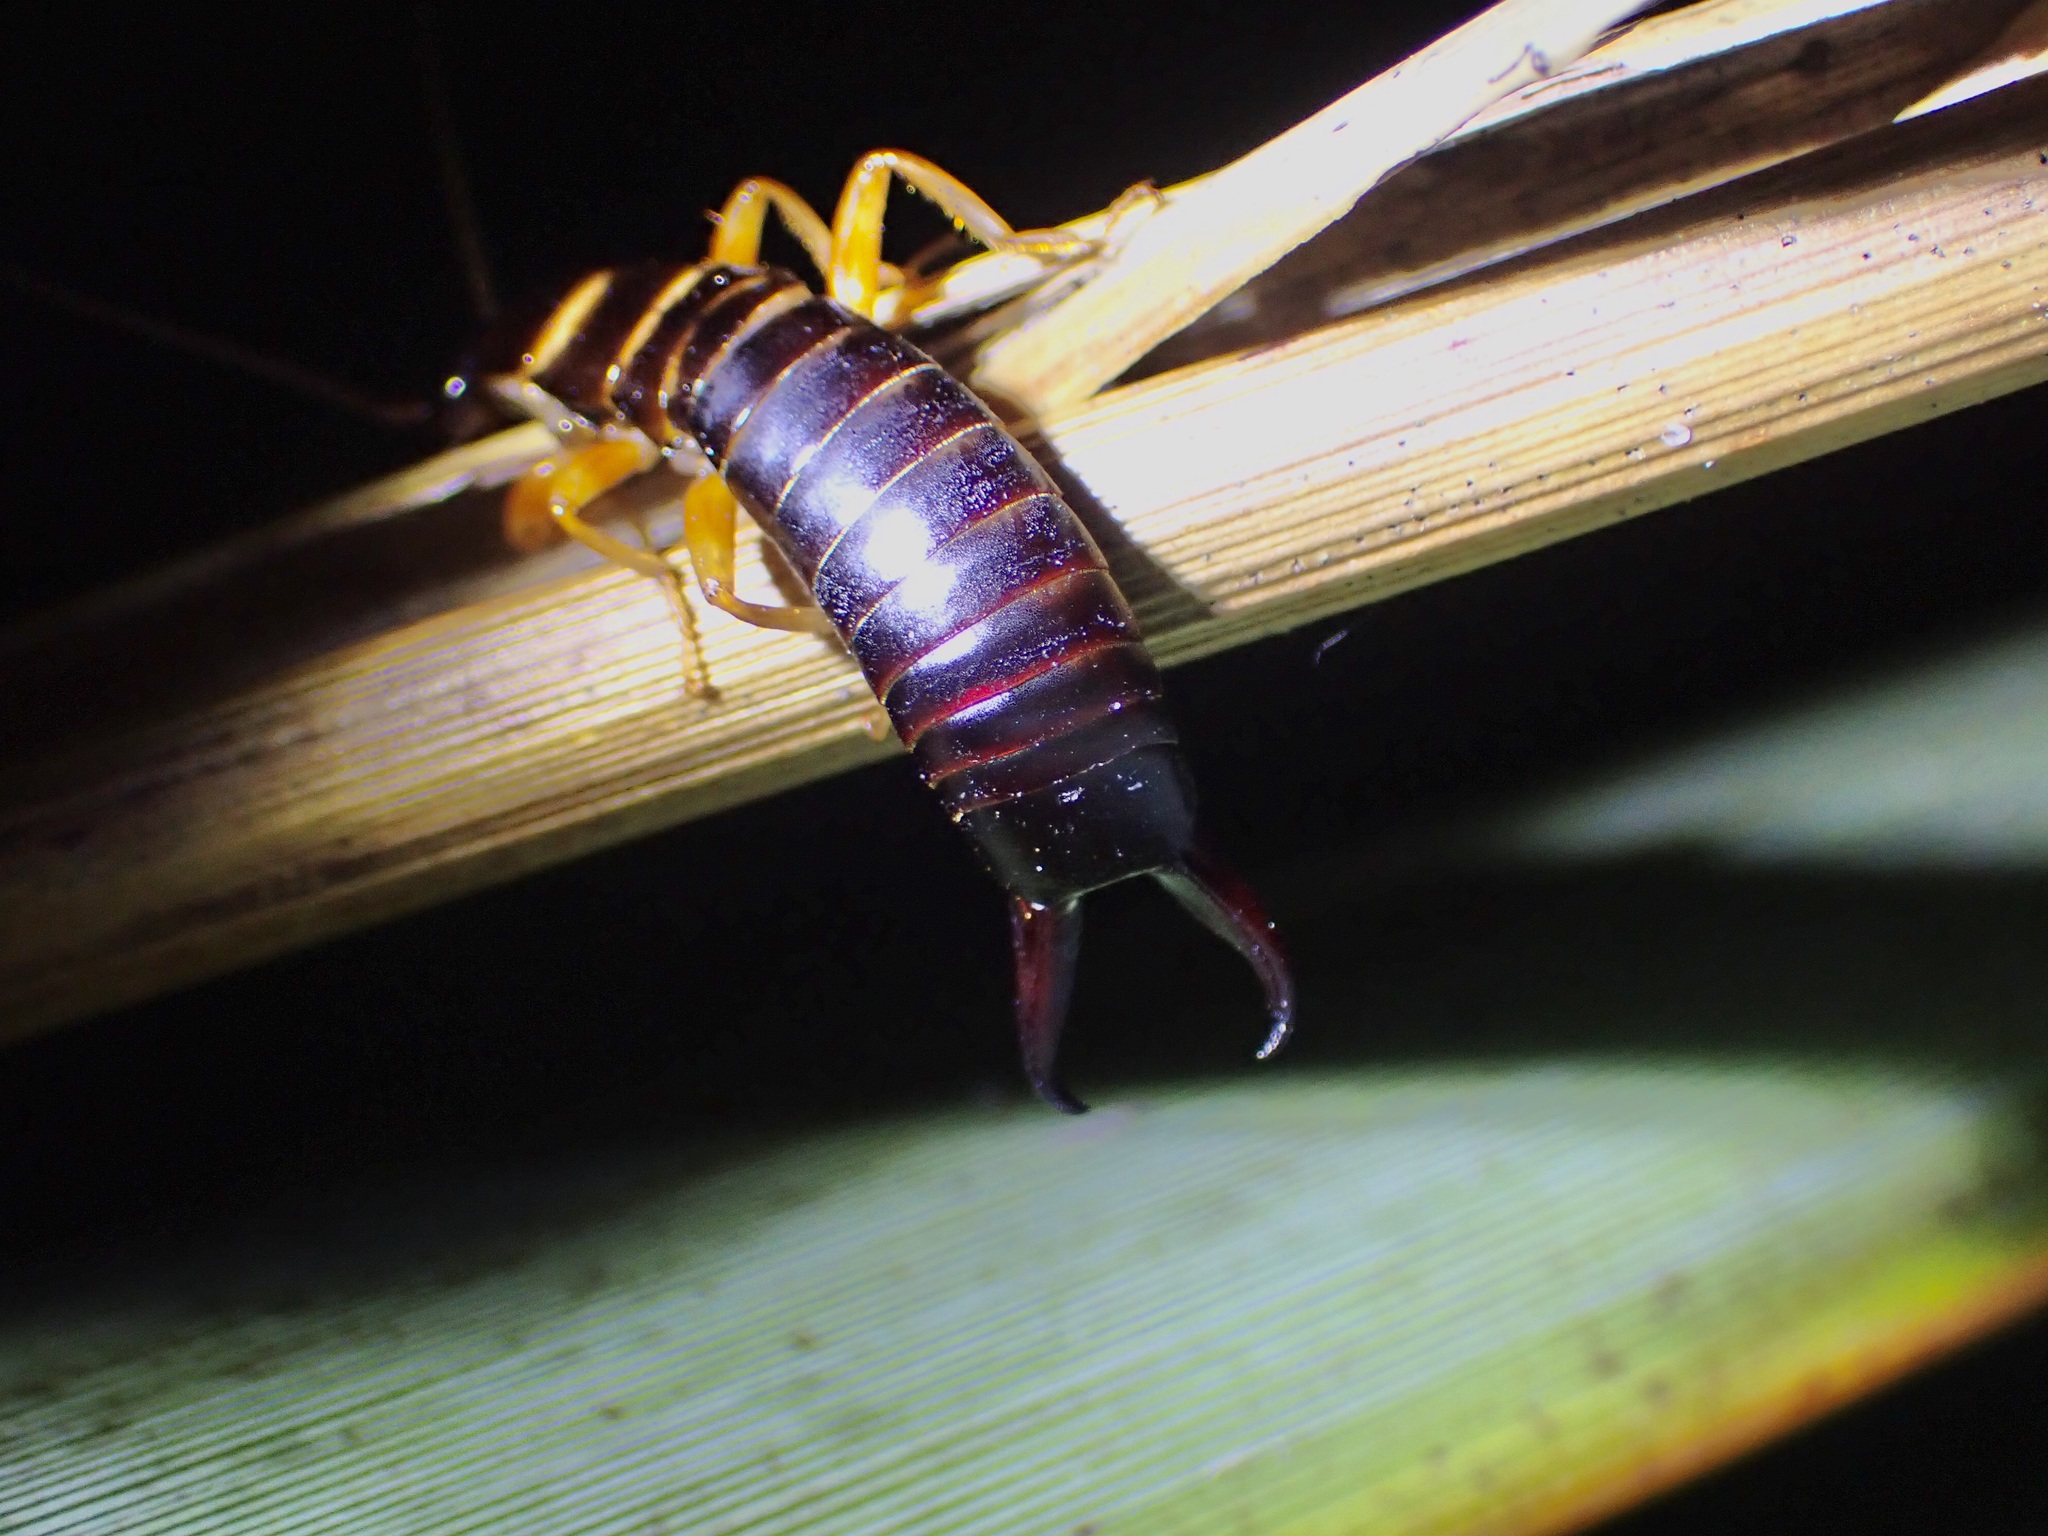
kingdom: Animalia
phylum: Arthropoda
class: Insecta
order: Dermaptera
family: Anisolabididae
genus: Anisolabis
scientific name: Anisolabis littorea
